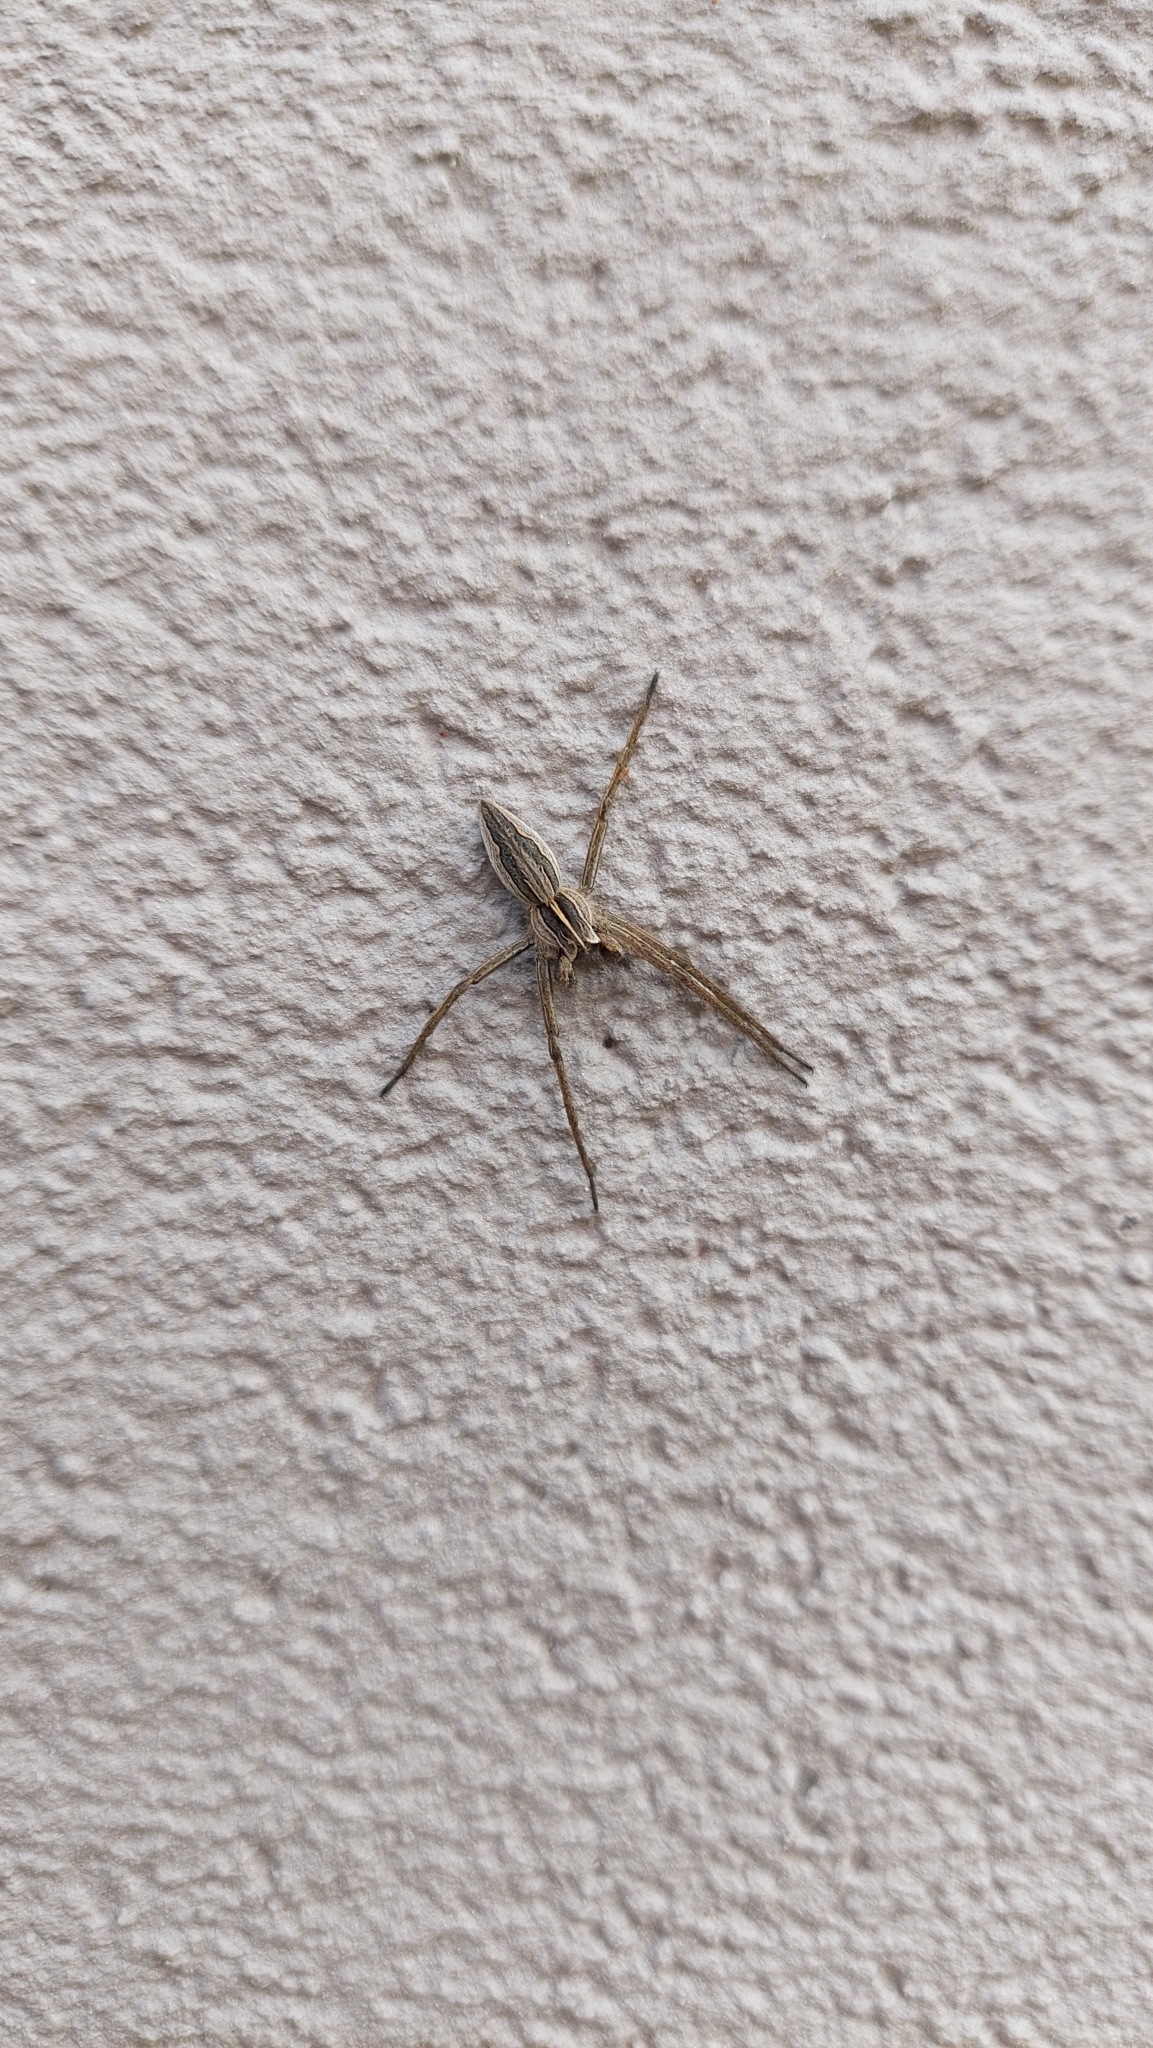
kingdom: Animalia
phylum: Arthropoda
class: Arachnida
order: Araneae
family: Pisauridae
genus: Pisaura
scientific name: Pisaura mirabilis
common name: Tent spider
